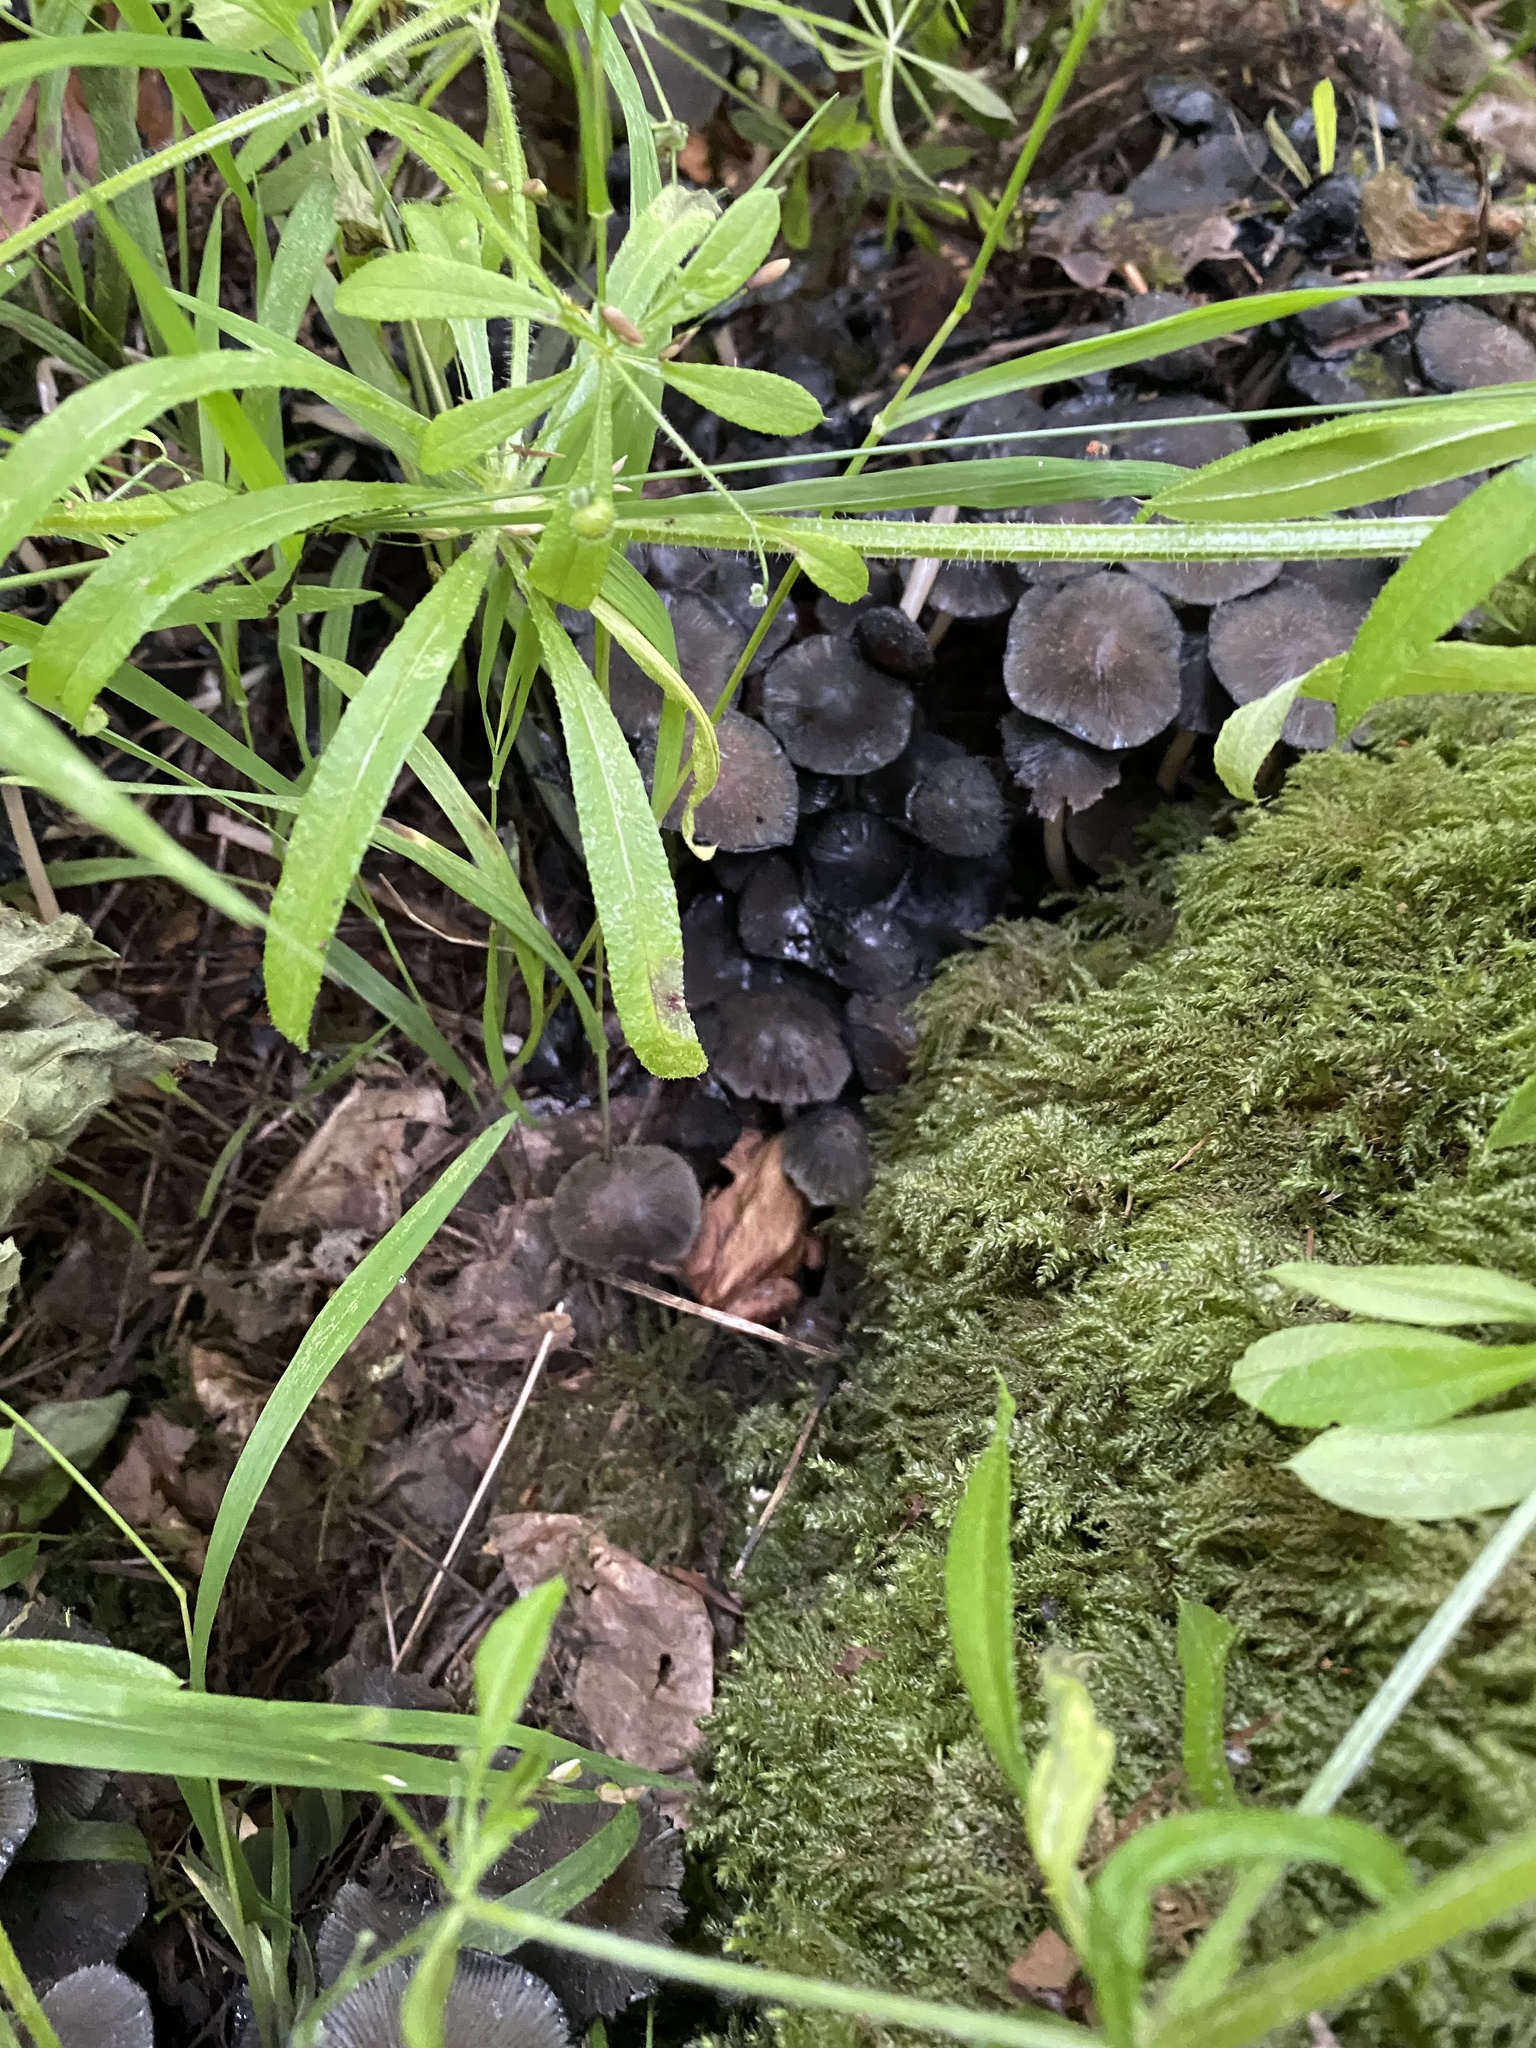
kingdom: Animalia
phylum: Chordata
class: Amphibia
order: Anura
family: Bufonidae
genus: Bufo
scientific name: Bufo bufo
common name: Common toad
